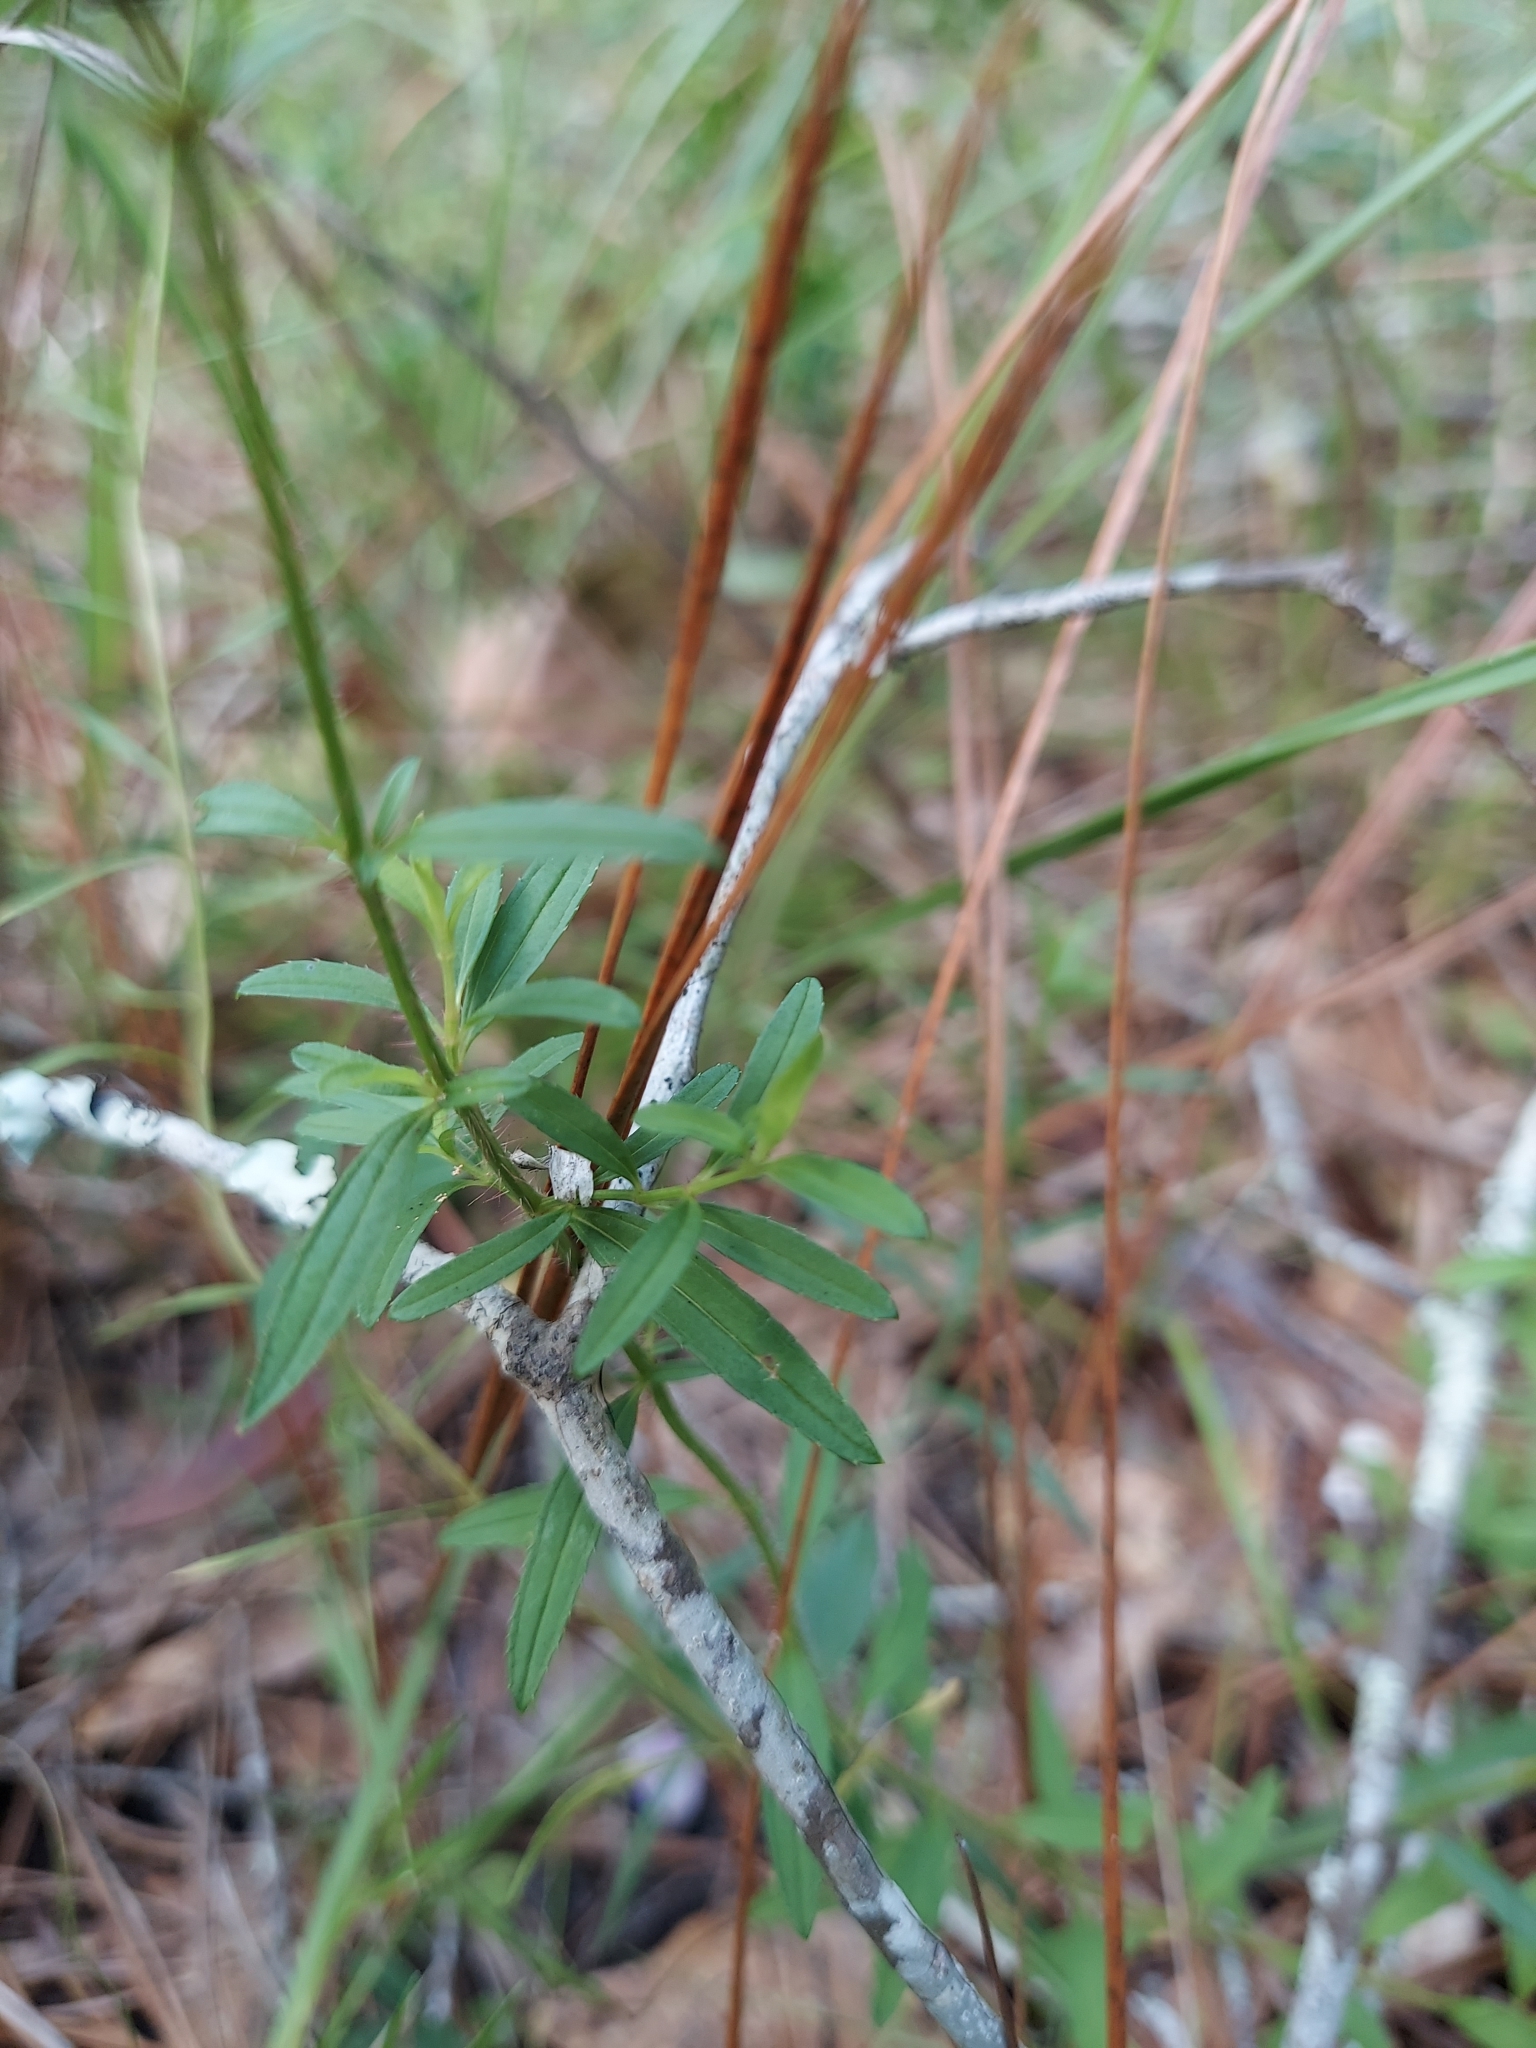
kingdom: Plantae
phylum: Tracheophyta
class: Magnoliopsida
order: Myrtales
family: Melastomataceae
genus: Rhexia
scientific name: Rhexia mariana
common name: Dull meadow-pitcher
